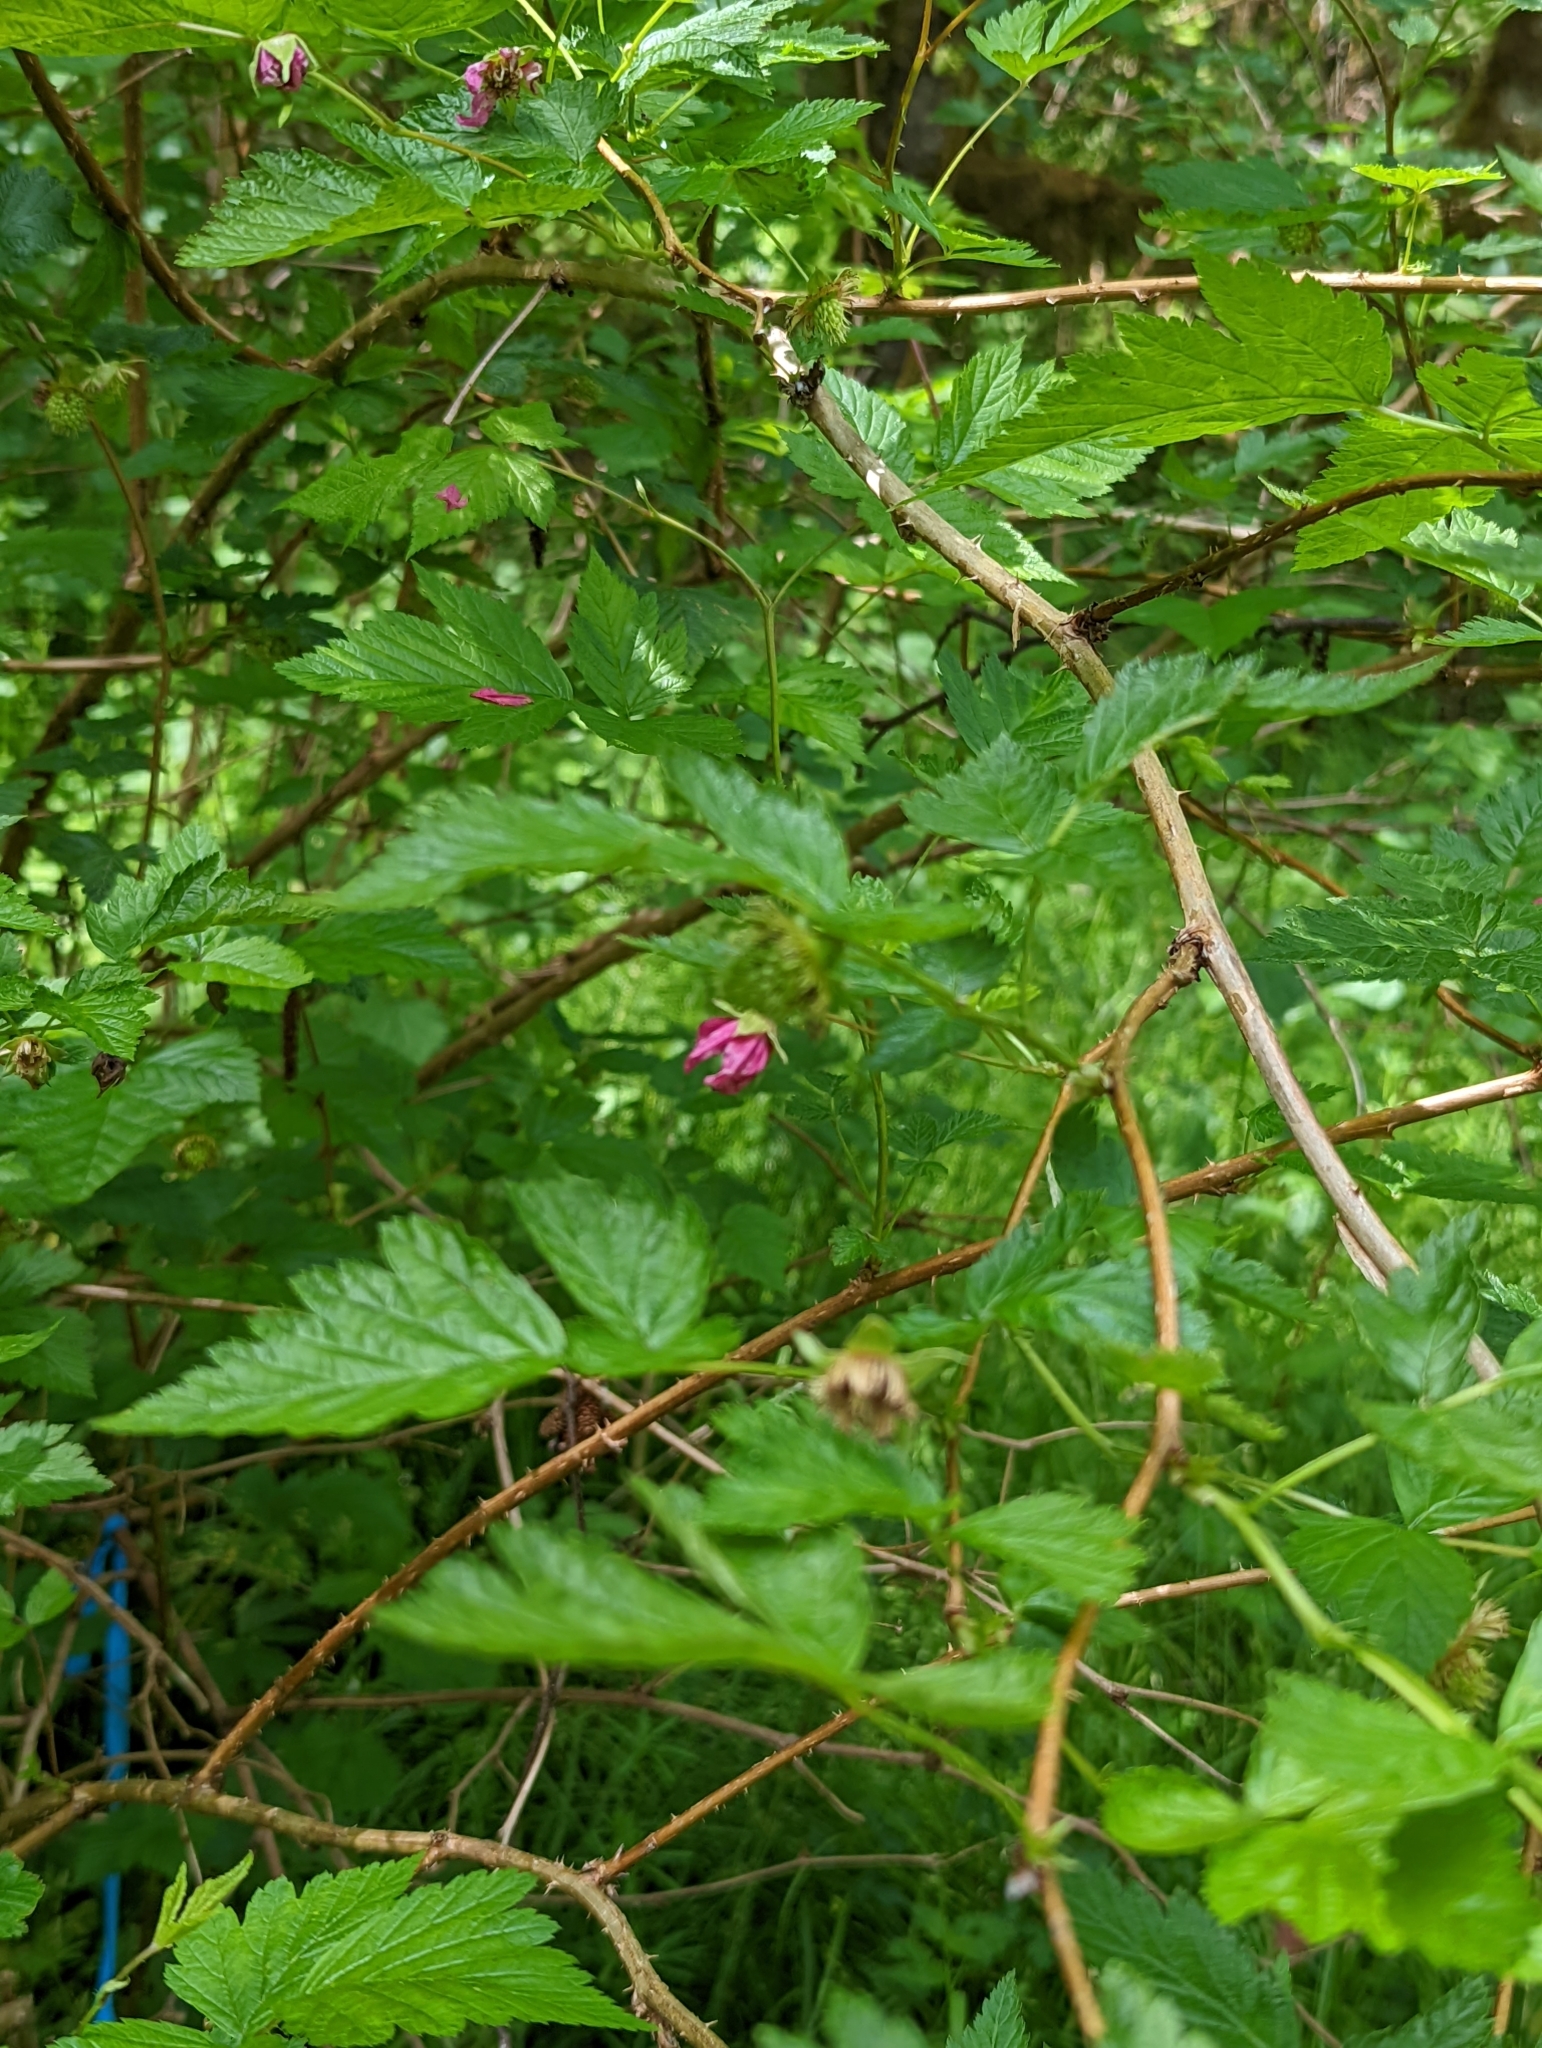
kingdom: Plantae
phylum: Tracheophyta
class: Magnoliopsida
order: Rosales
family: Rosaceae
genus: Rubus
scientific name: Rubus spectabilis
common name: Salmonberry
